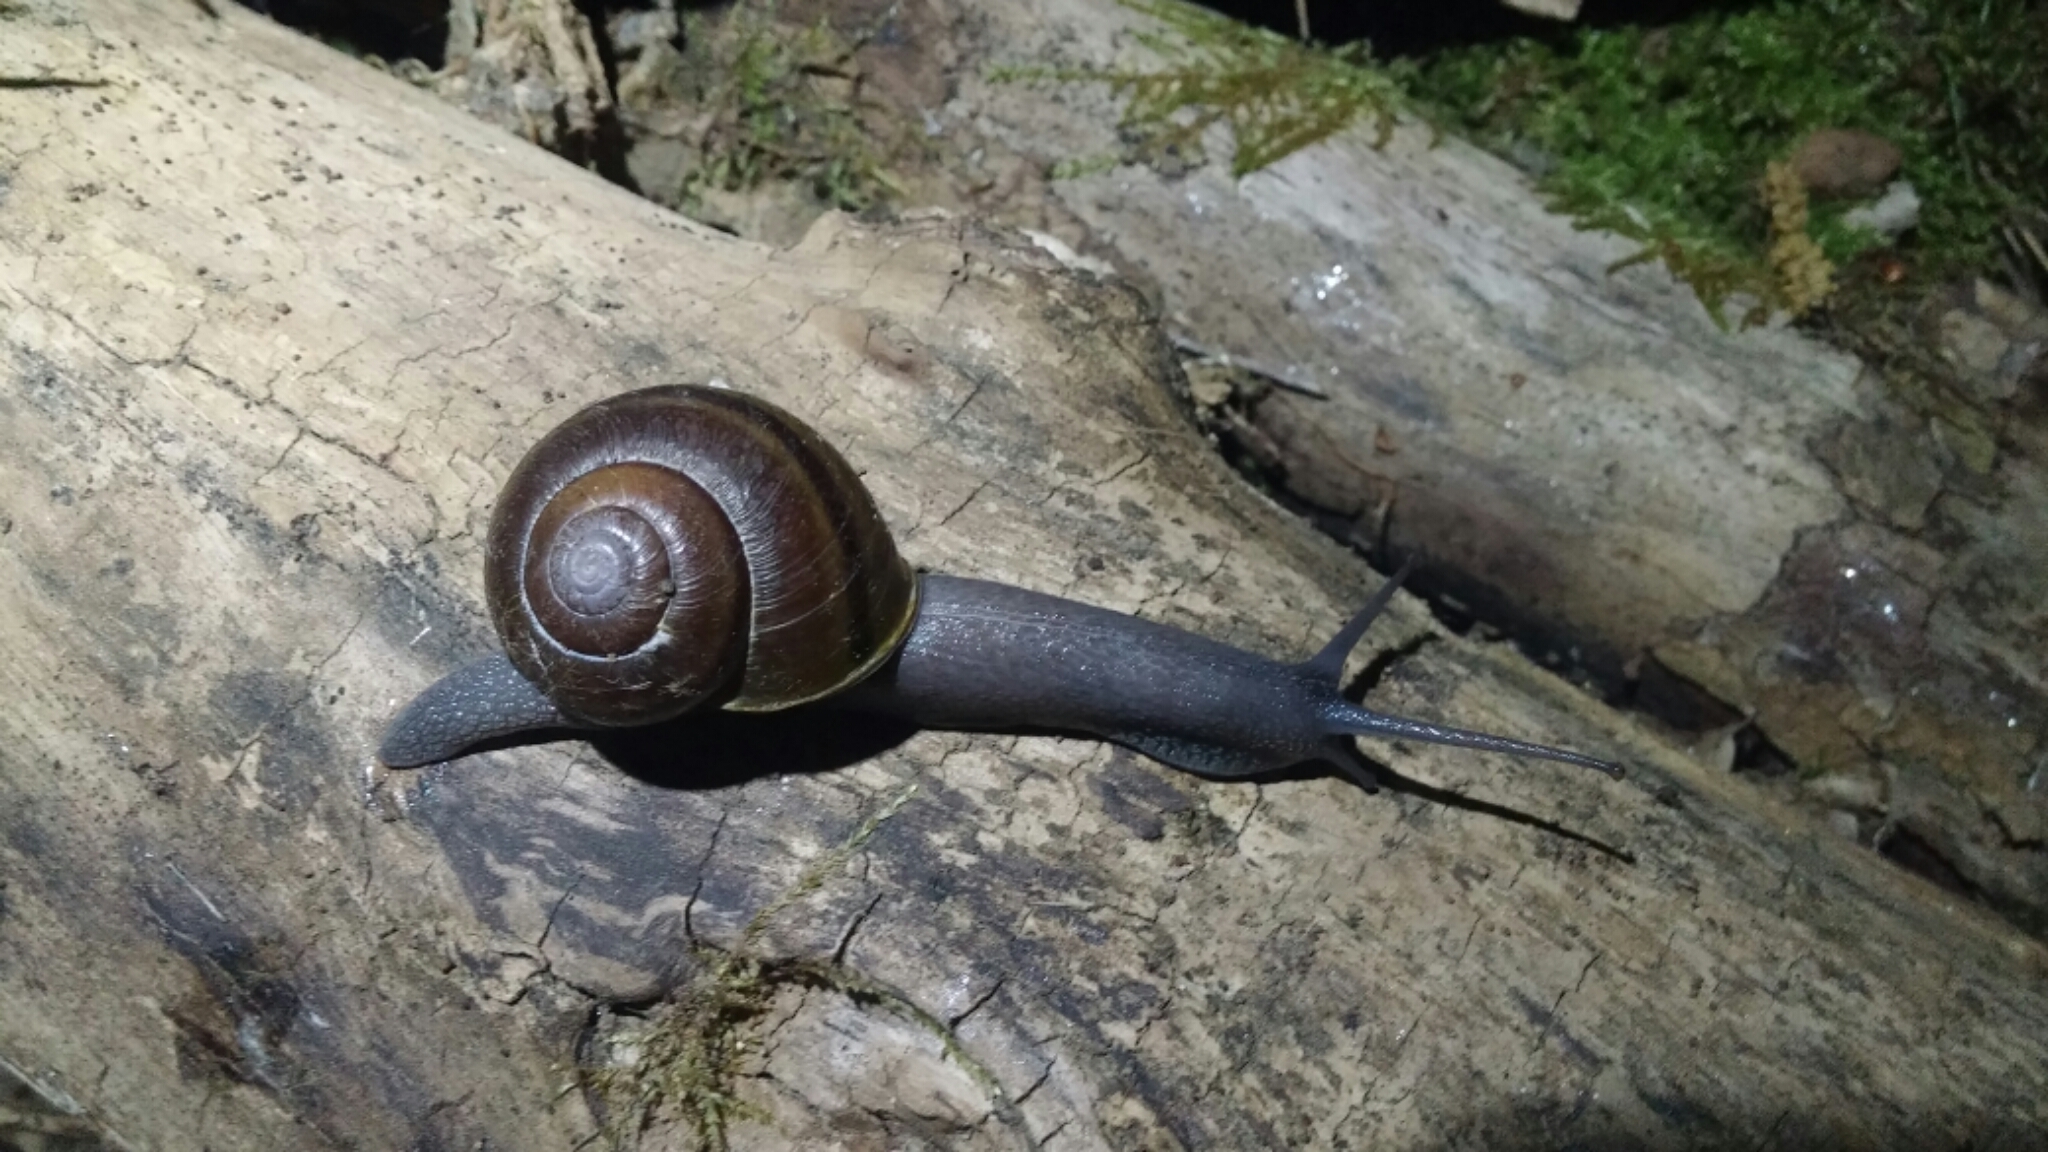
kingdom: Animalia
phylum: Mollusca
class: Gastropoda
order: Stylommatophora
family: Xanthonychidae
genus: Helminthoglypta
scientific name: Helminthoglypta tudiculata
